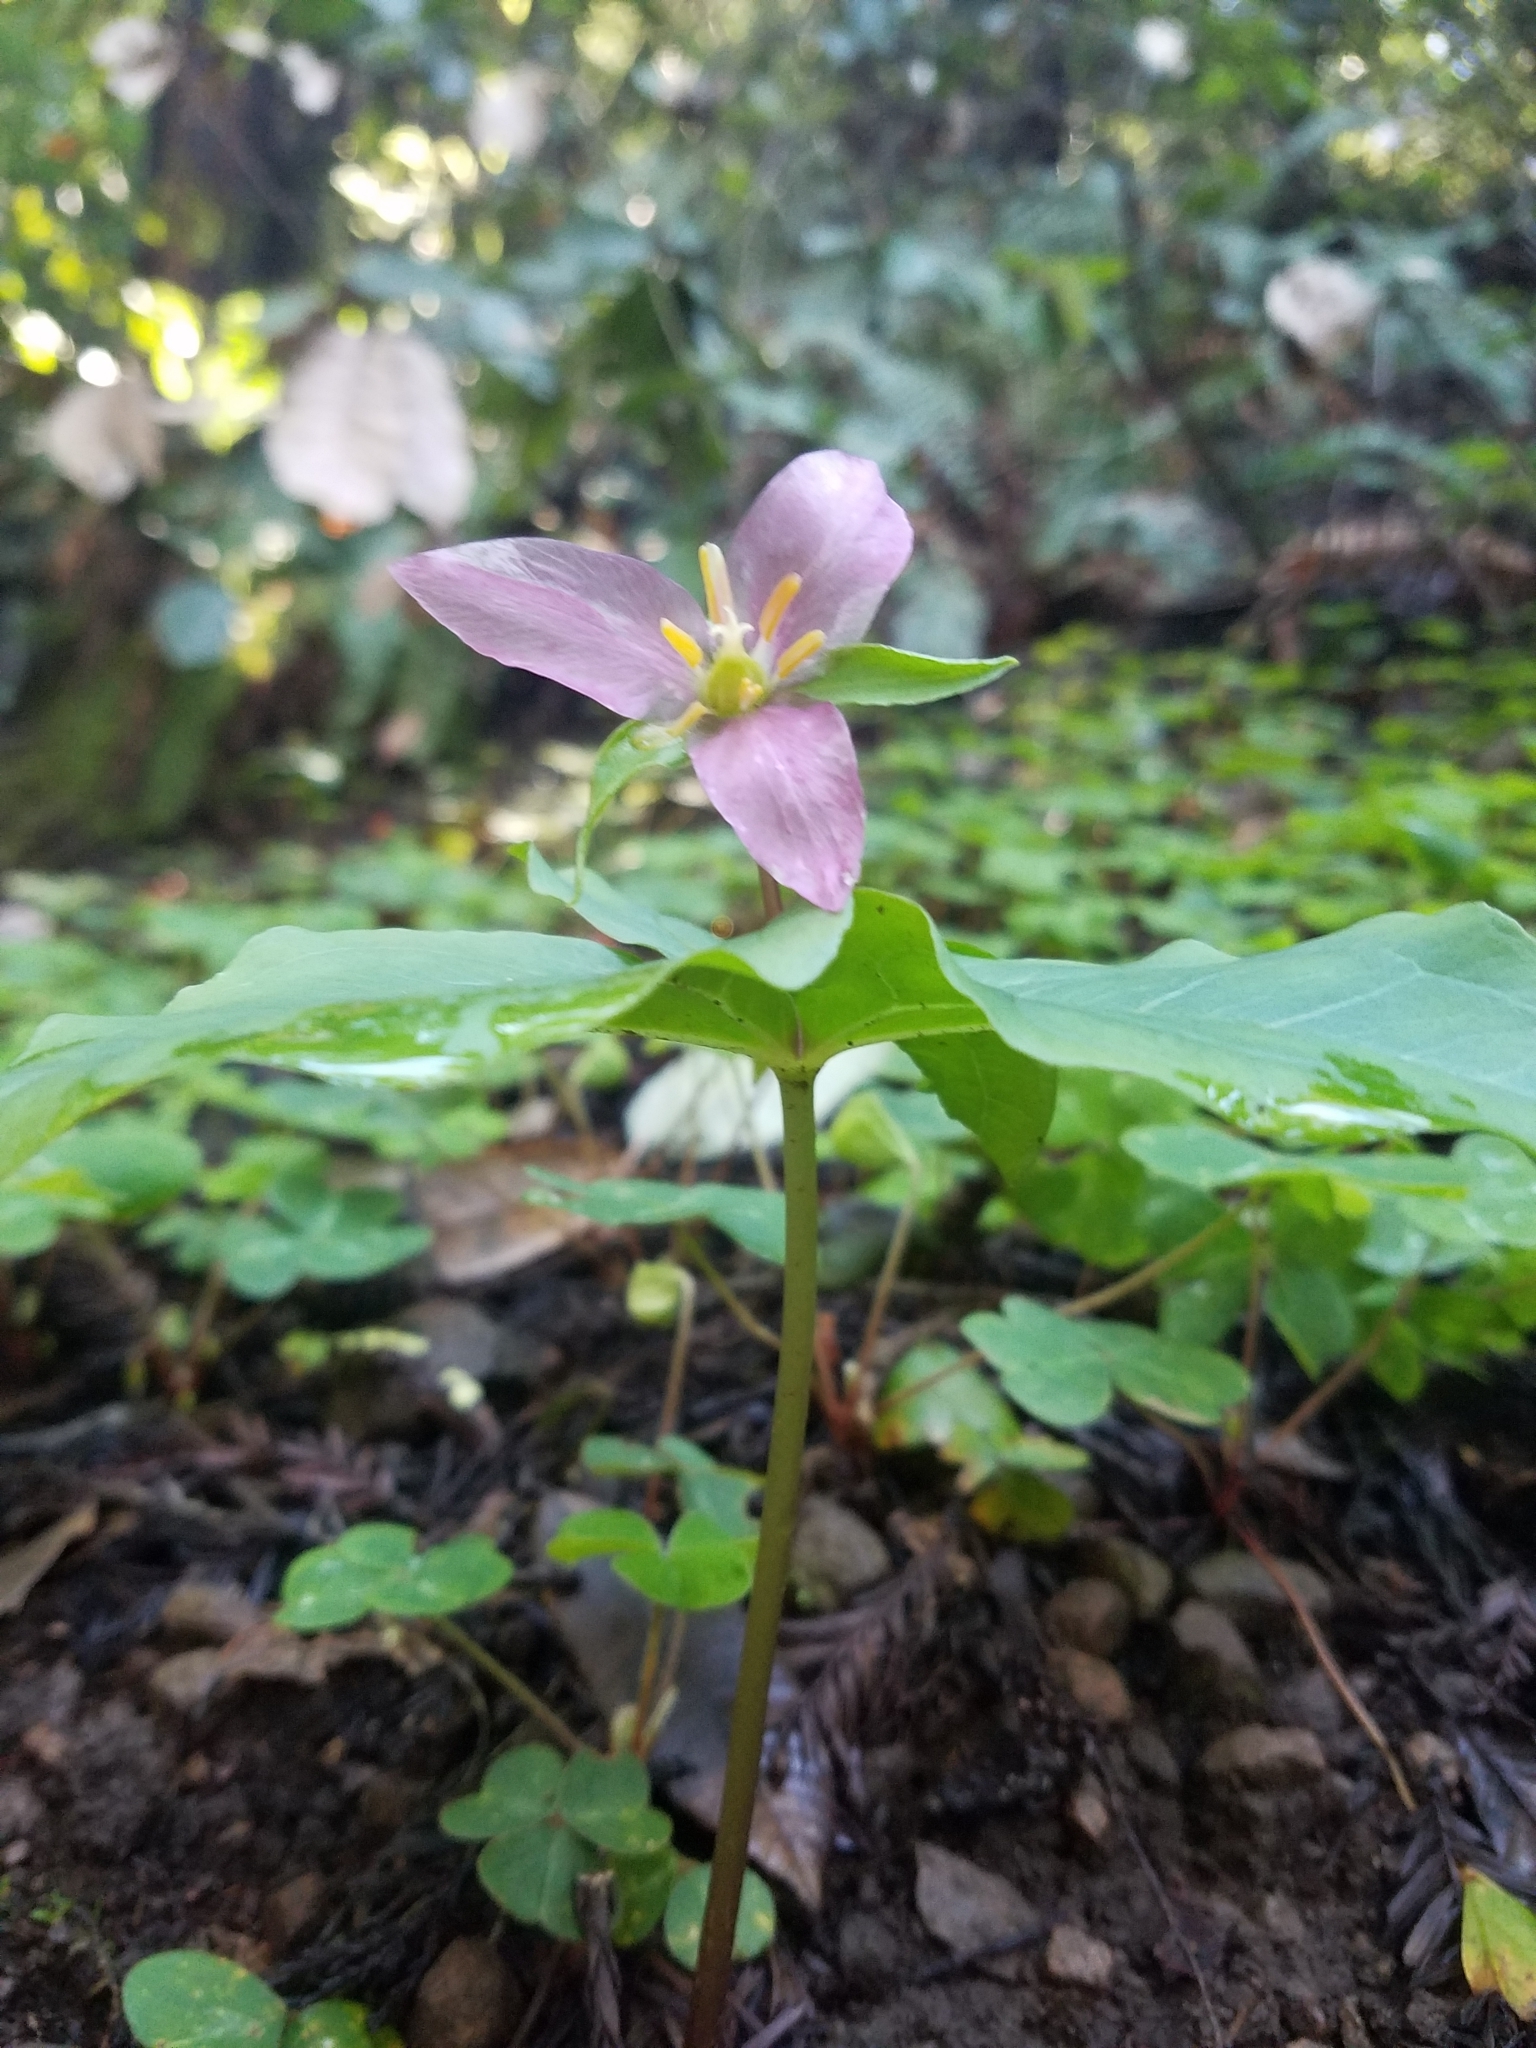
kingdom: Plantae
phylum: Tracheophyta
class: Liliopsida
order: Liliales
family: Melanthiaceae
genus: Trillium
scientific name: Trillium ovatum
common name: Pacific trillium
